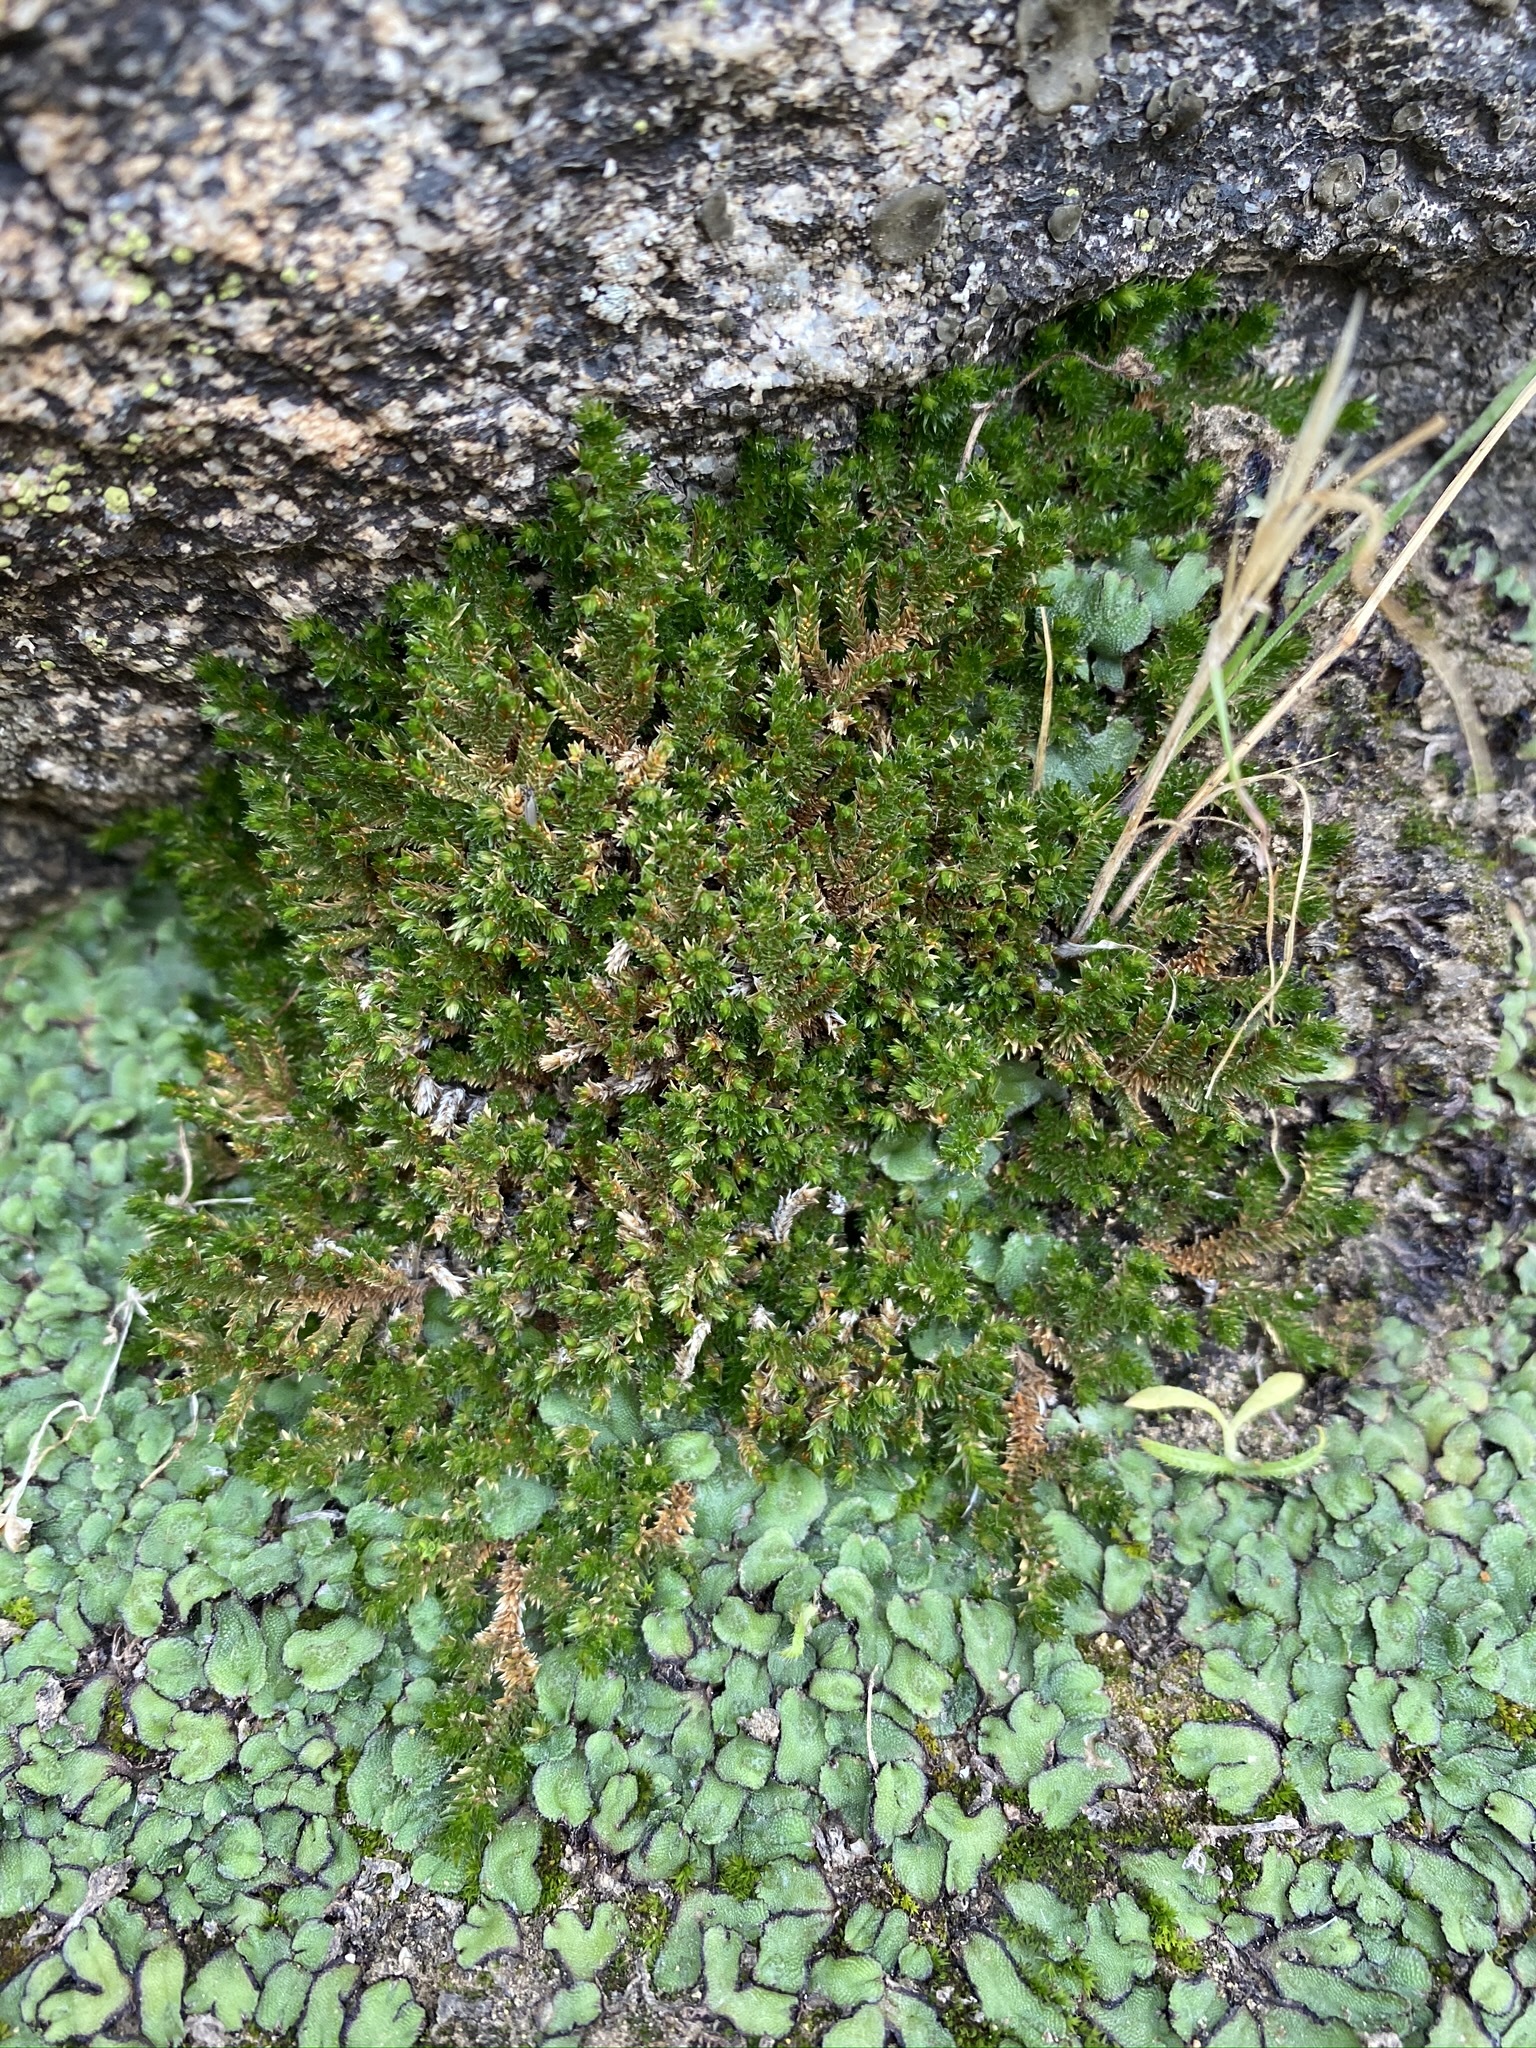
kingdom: Plantae
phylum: Tracheophyta
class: Lycopodiopsida
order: Selaginellales
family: Selaginellaceae
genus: Selaginella
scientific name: Selaginella eremophila
